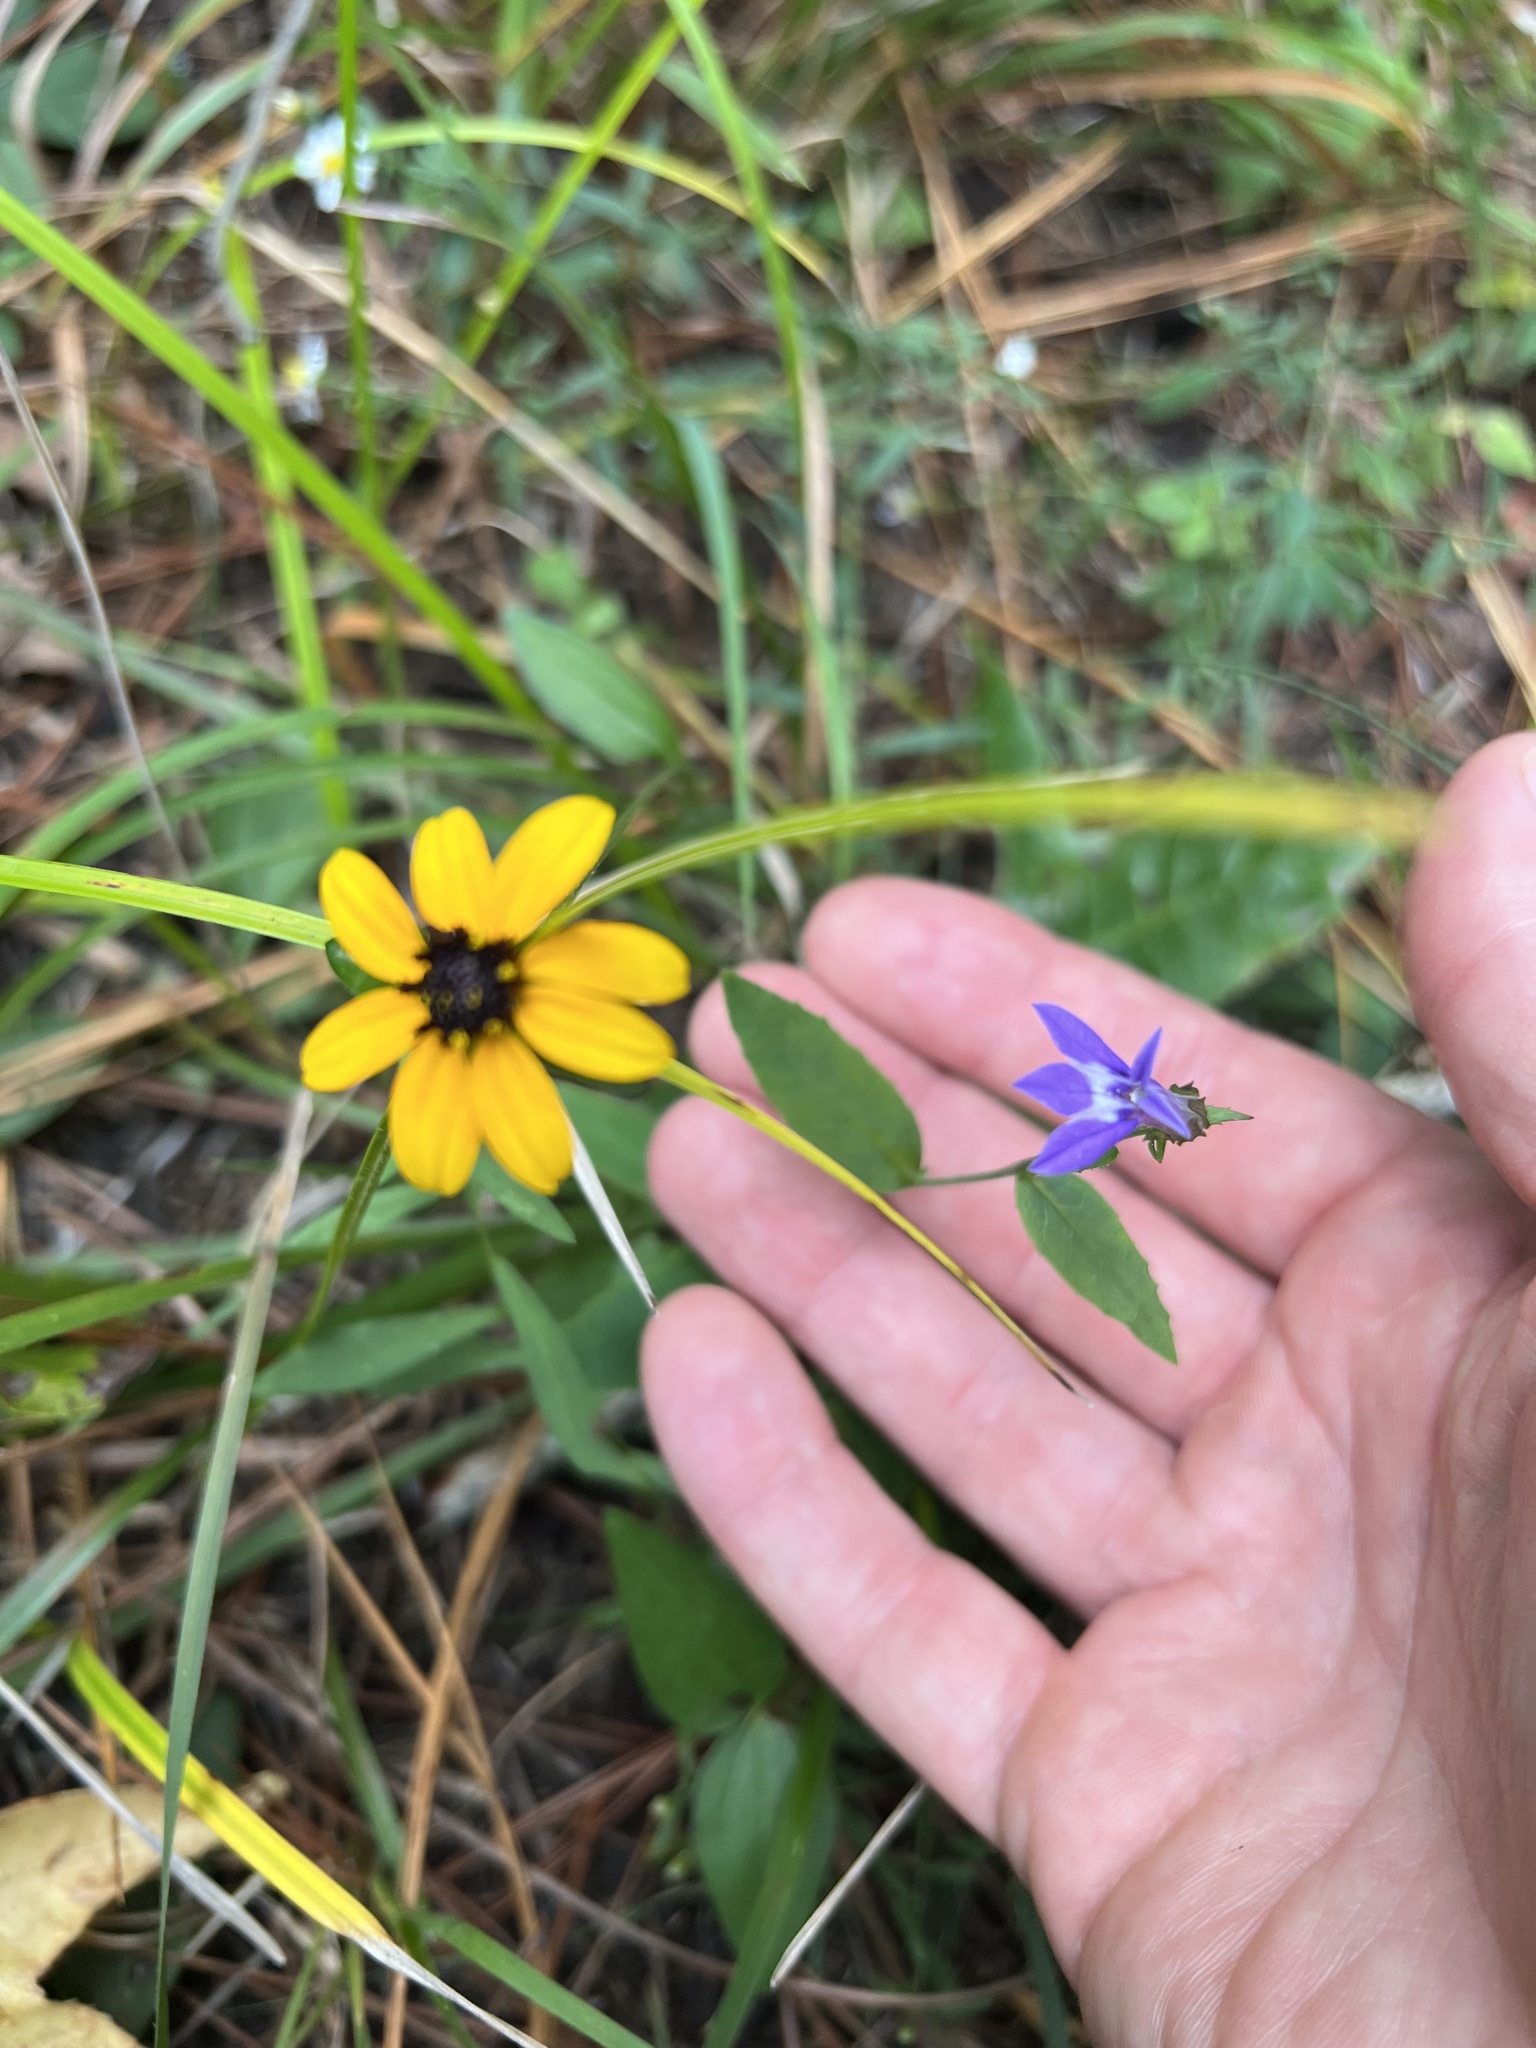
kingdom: Plantae
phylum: Tracheophyta
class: Magnoliopsida
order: Asterales
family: Campanulaceae
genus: Lobelia
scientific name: Lobelia puberula
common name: Purple dewdrop
